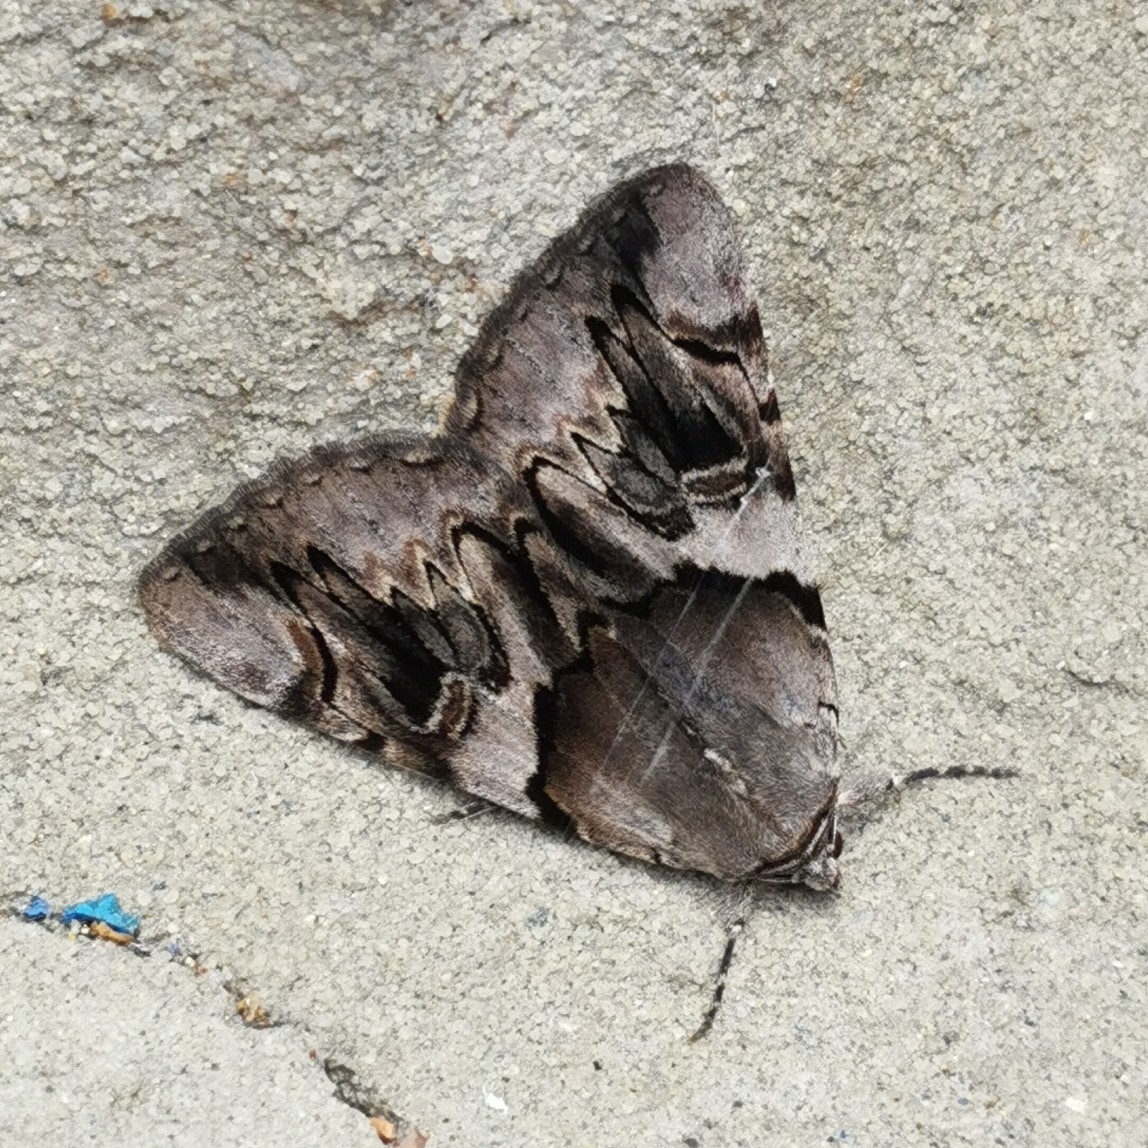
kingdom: Animalia
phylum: Arthropoda
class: Insecta
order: Lepidoptera
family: Erebidae
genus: Catocala
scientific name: Catocala fulminea
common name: Yellow bands underwing
